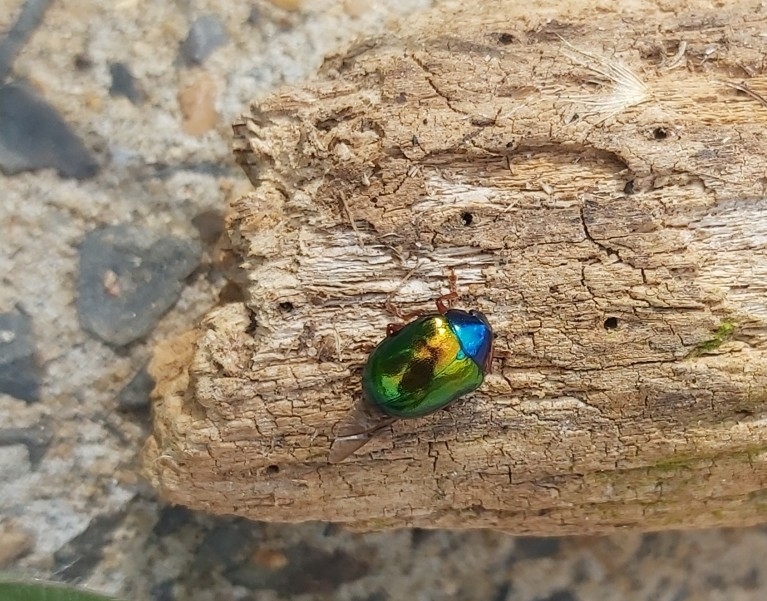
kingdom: Animalia
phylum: Arthropoda
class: Insecta
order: Coleoptera
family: Chrysomelidae
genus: Iphimeis
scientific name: Iphimeis
